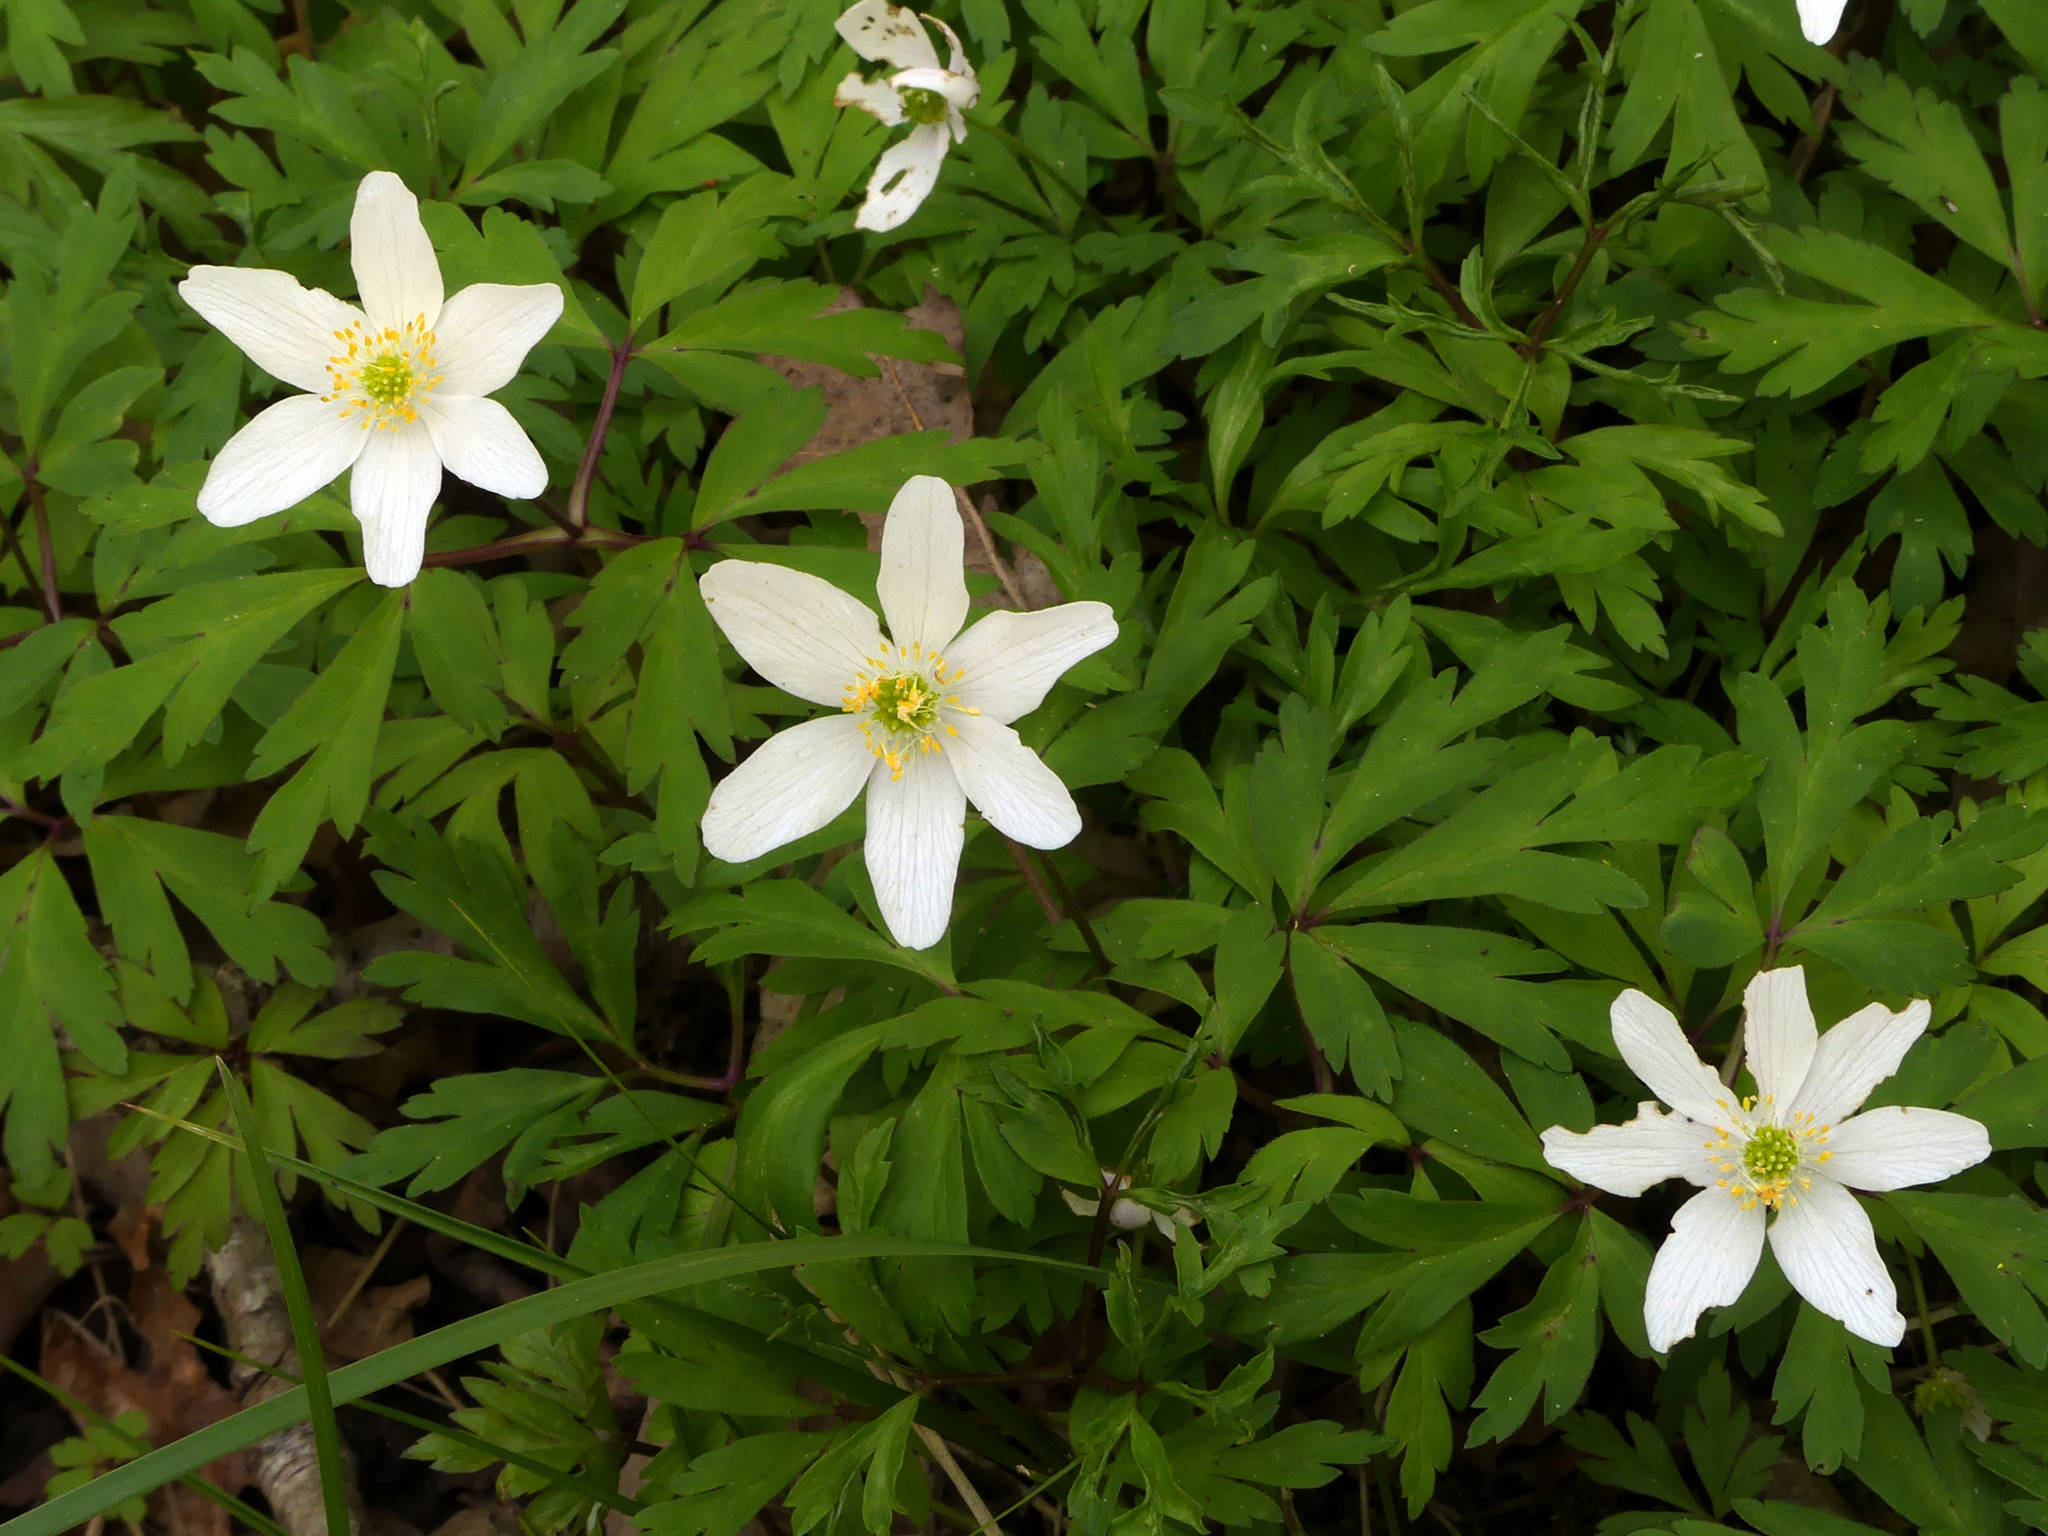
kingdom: Plantae
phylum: Tracheophyta
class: Magnoliopsida
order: Ranunculales
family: Ranunculaceae
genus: Anemone
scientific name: Anemone nemorosa
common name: Wood anemone
